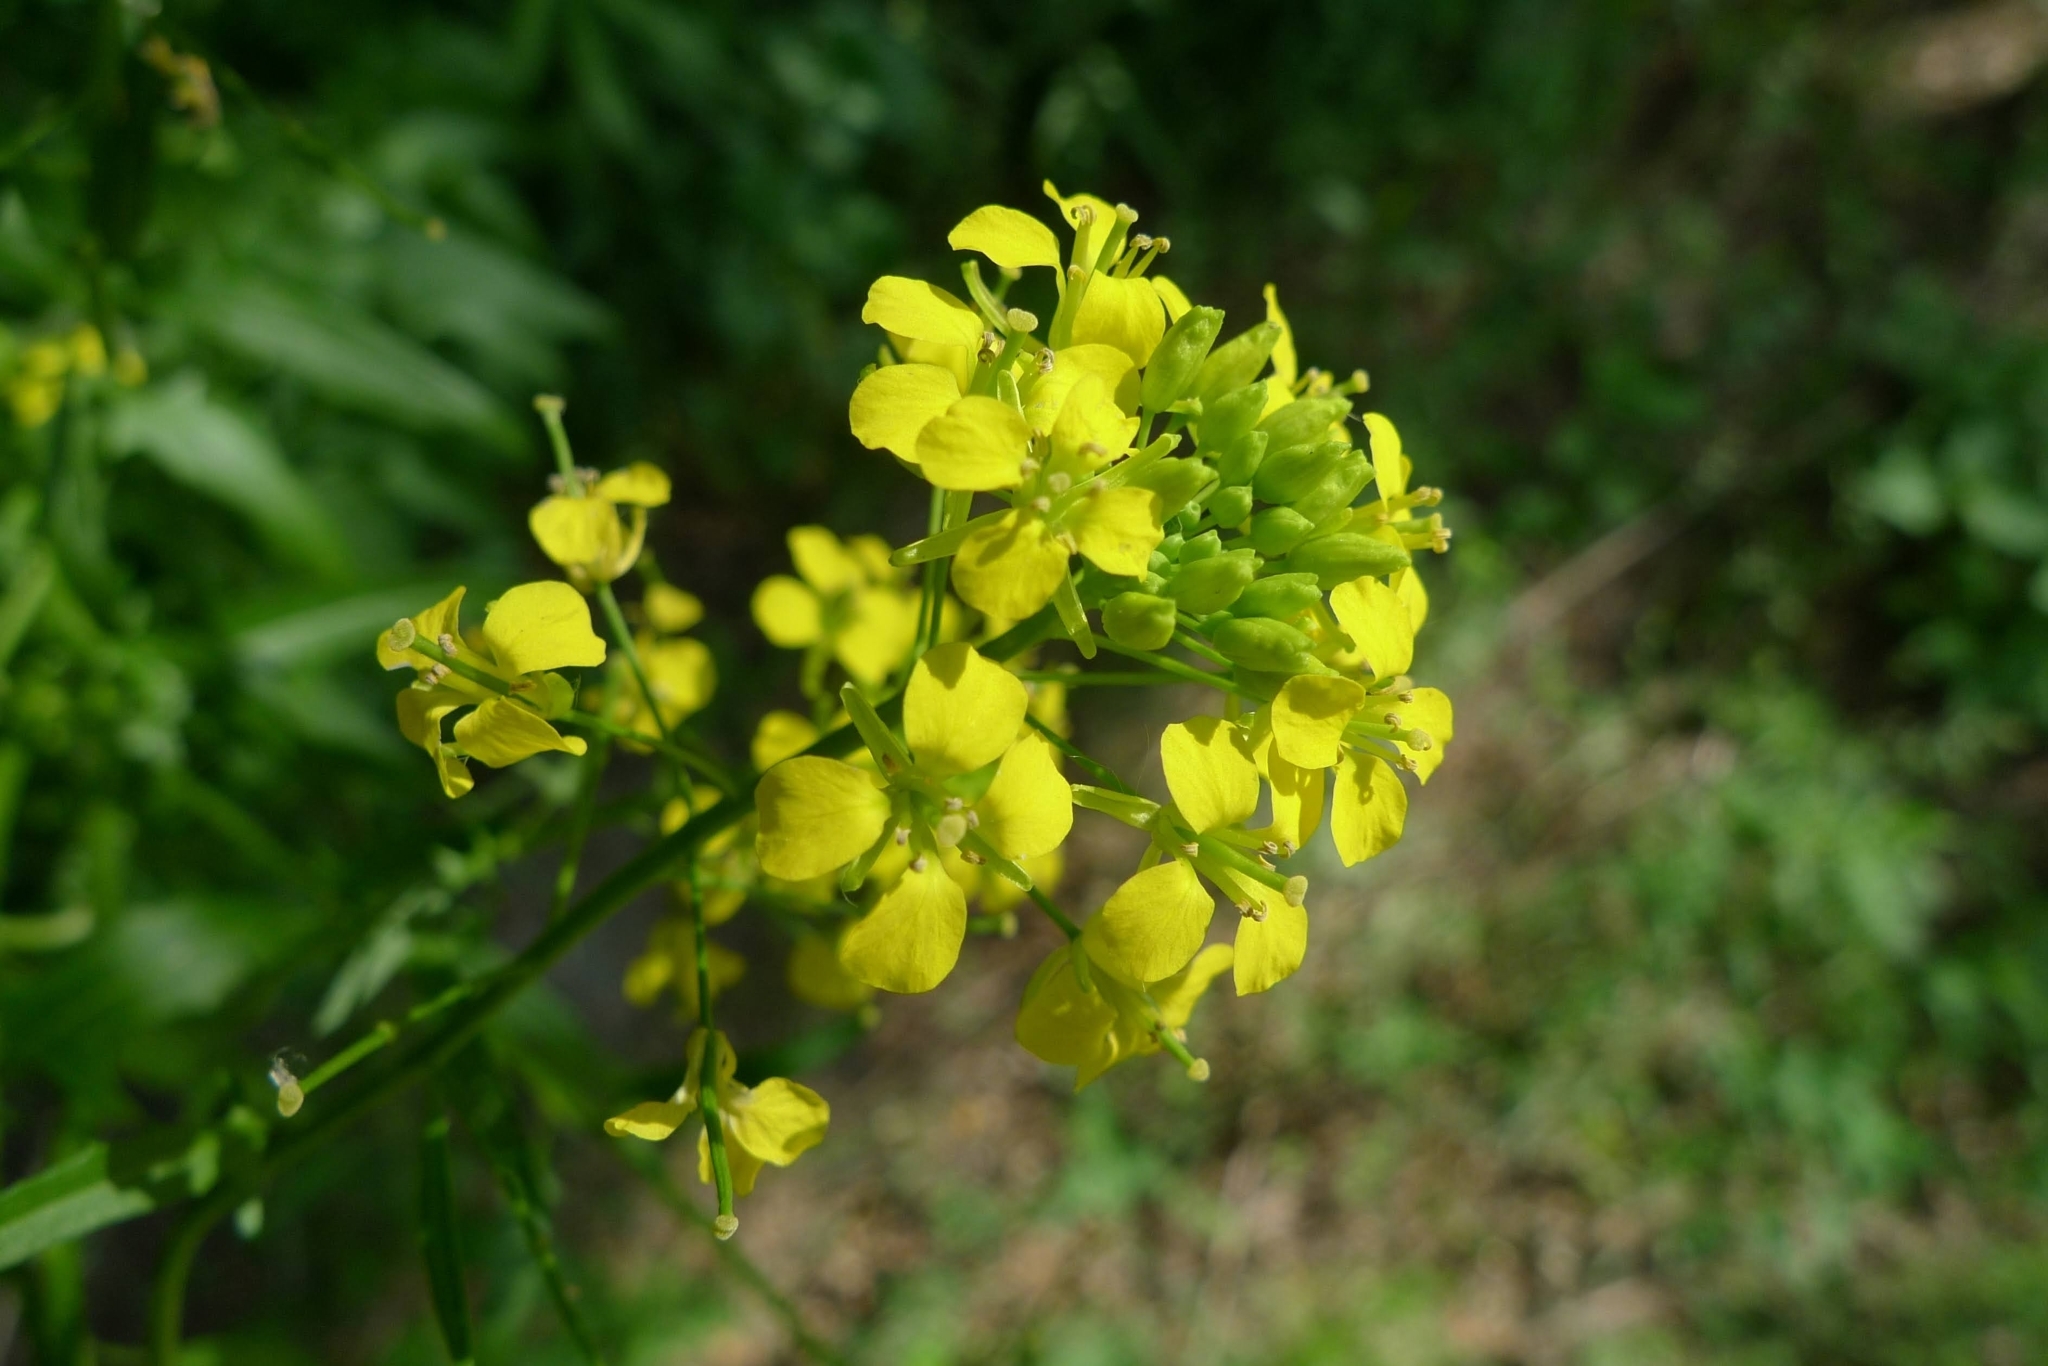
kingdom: Plantae
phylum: Tracheophyta
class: Magnoliopsida
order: Brassicales
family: Brassicaceae
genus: Sisymbrium
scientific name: Sisymbrium loeselii
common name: False london-rocket
